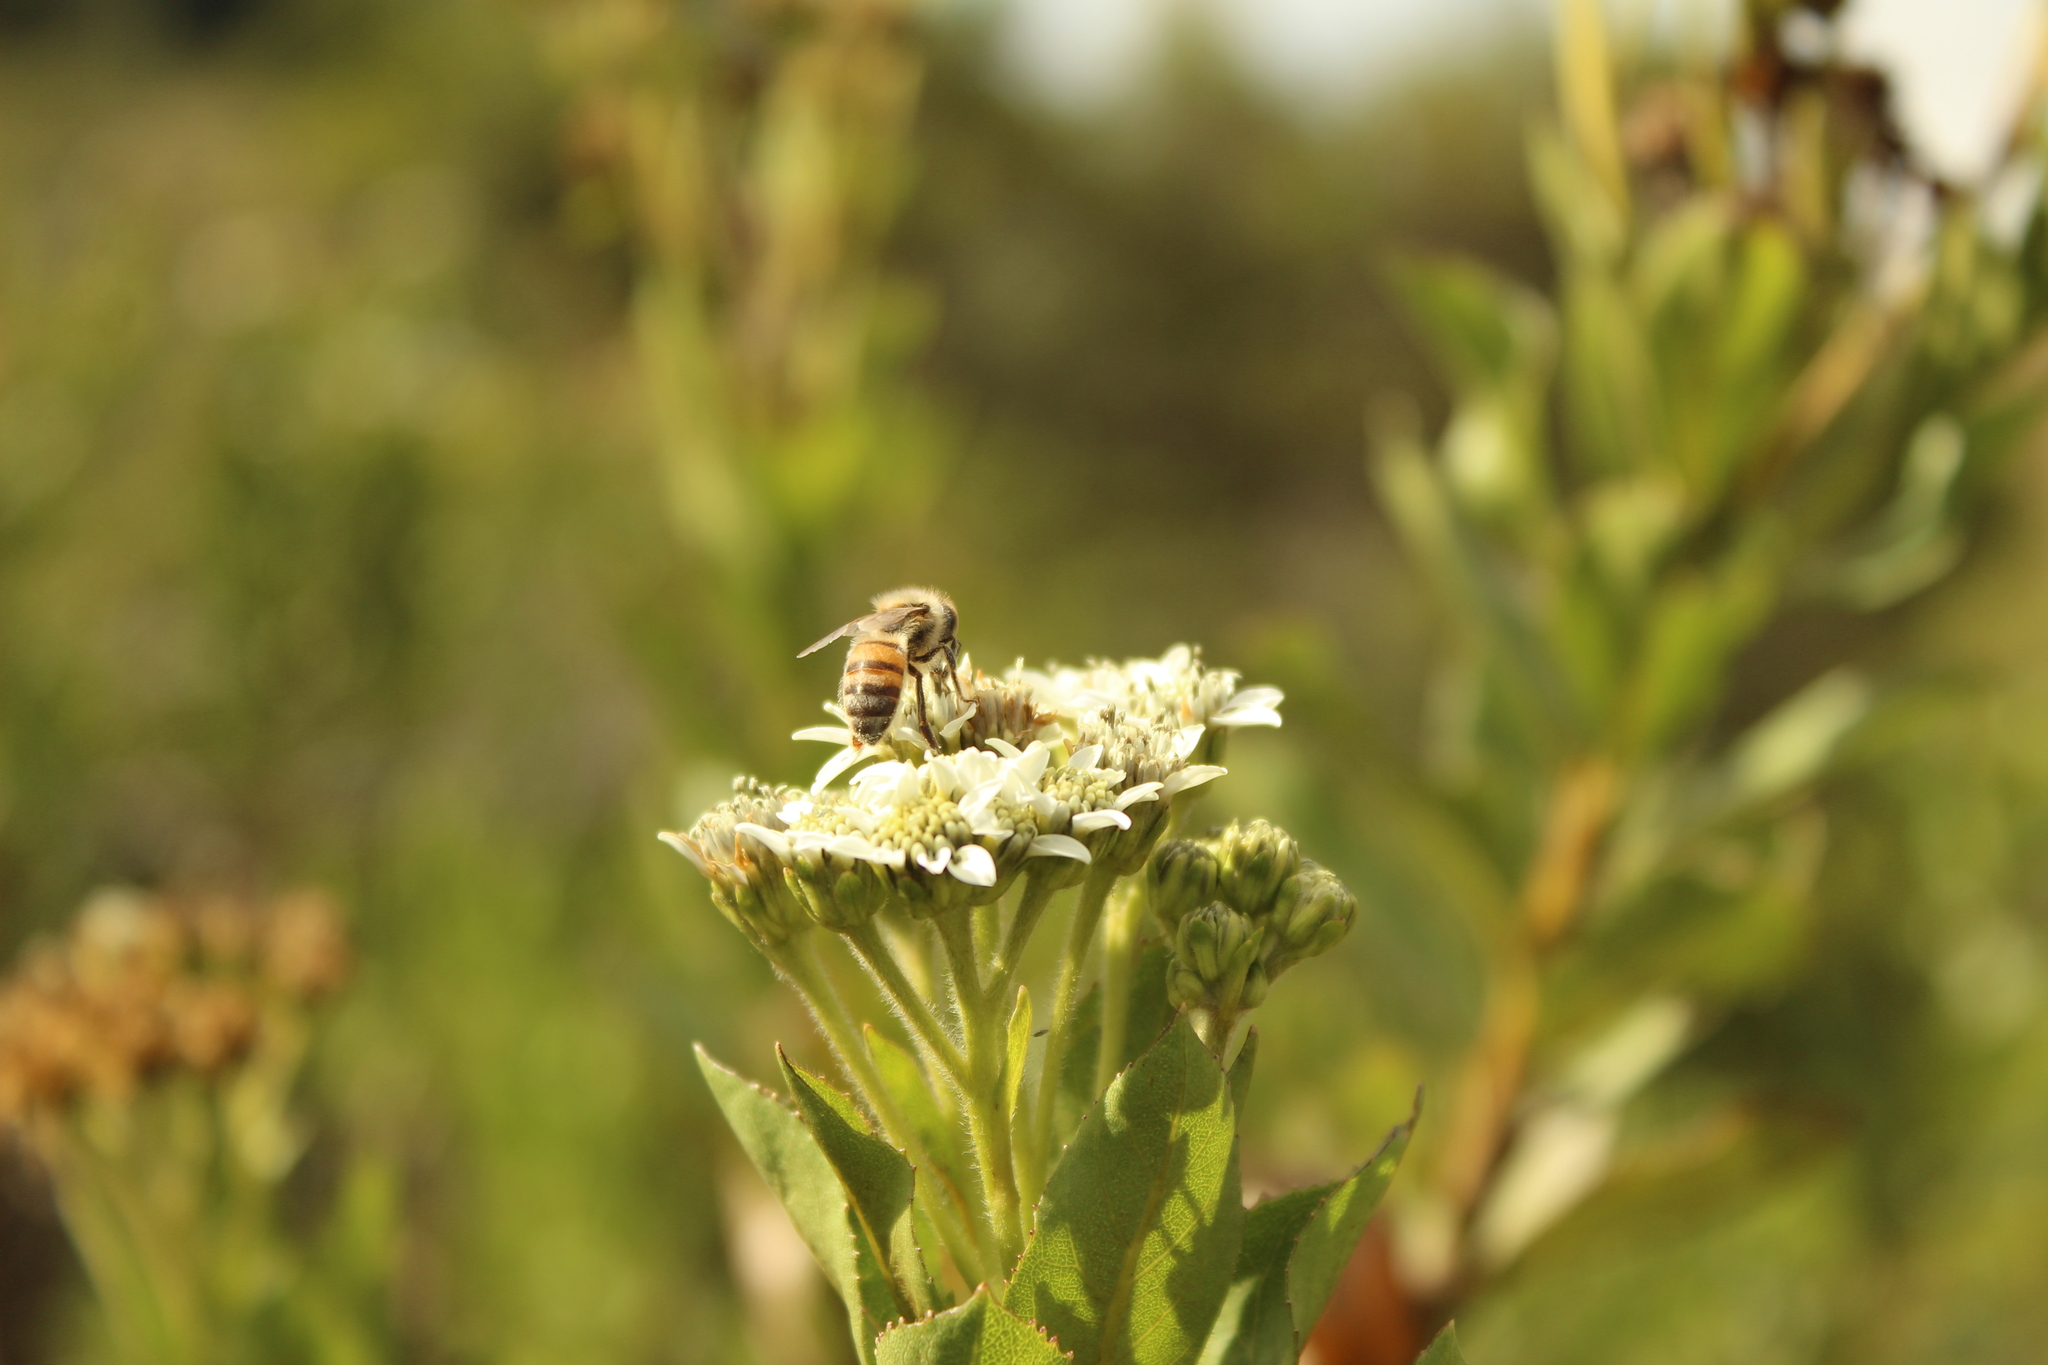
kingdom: Animalia
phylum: Arthropoda
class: Insecta
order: Hymenoptera
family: Apidae
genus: Apis
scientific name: Apis mellifera
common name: Honey bee
